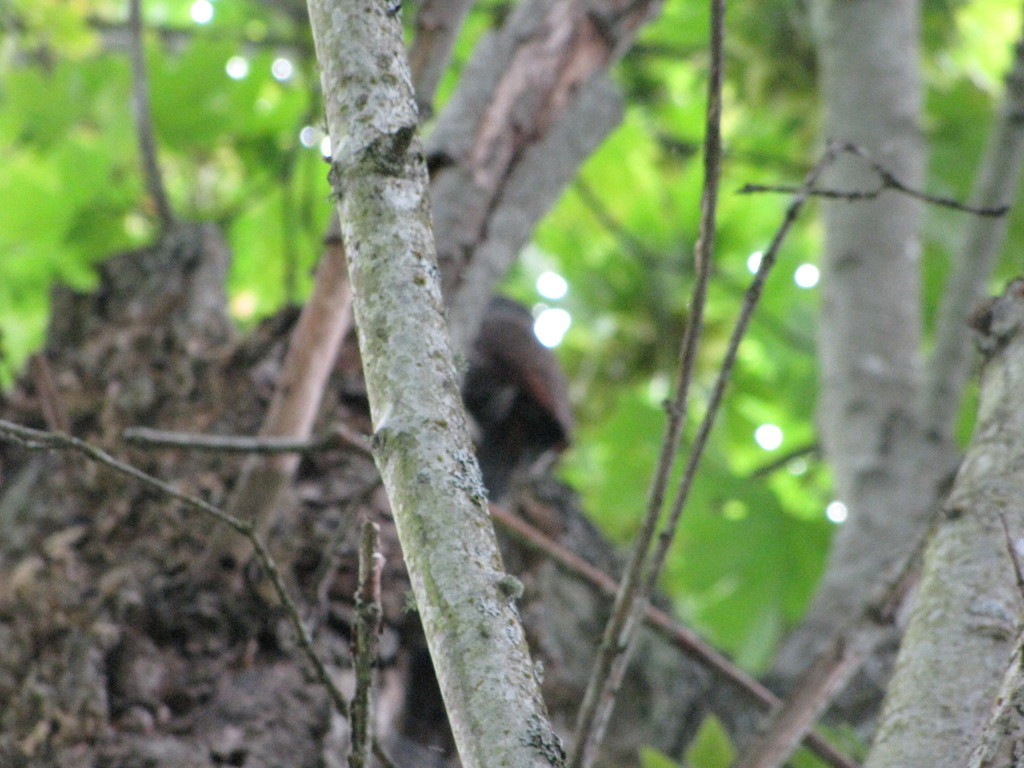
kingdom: Animalia
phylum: Chordata
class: Aves
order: Piciformes
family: Picidae
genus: Colaptes
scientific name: Colaptes auratus
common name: Northern flicker
